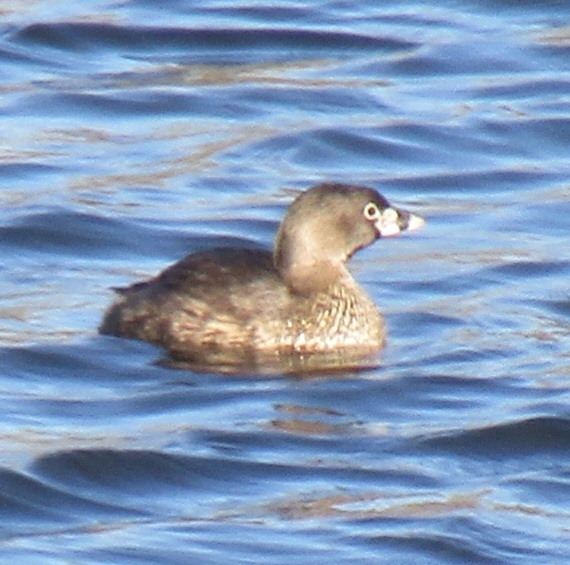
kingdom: Animalia
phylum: Chordata
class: Aves
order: Podicipediformes
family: Podicipedidae
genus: Podilymbus
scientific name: Podilymbus podiceps
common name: Pied-billed grebe
